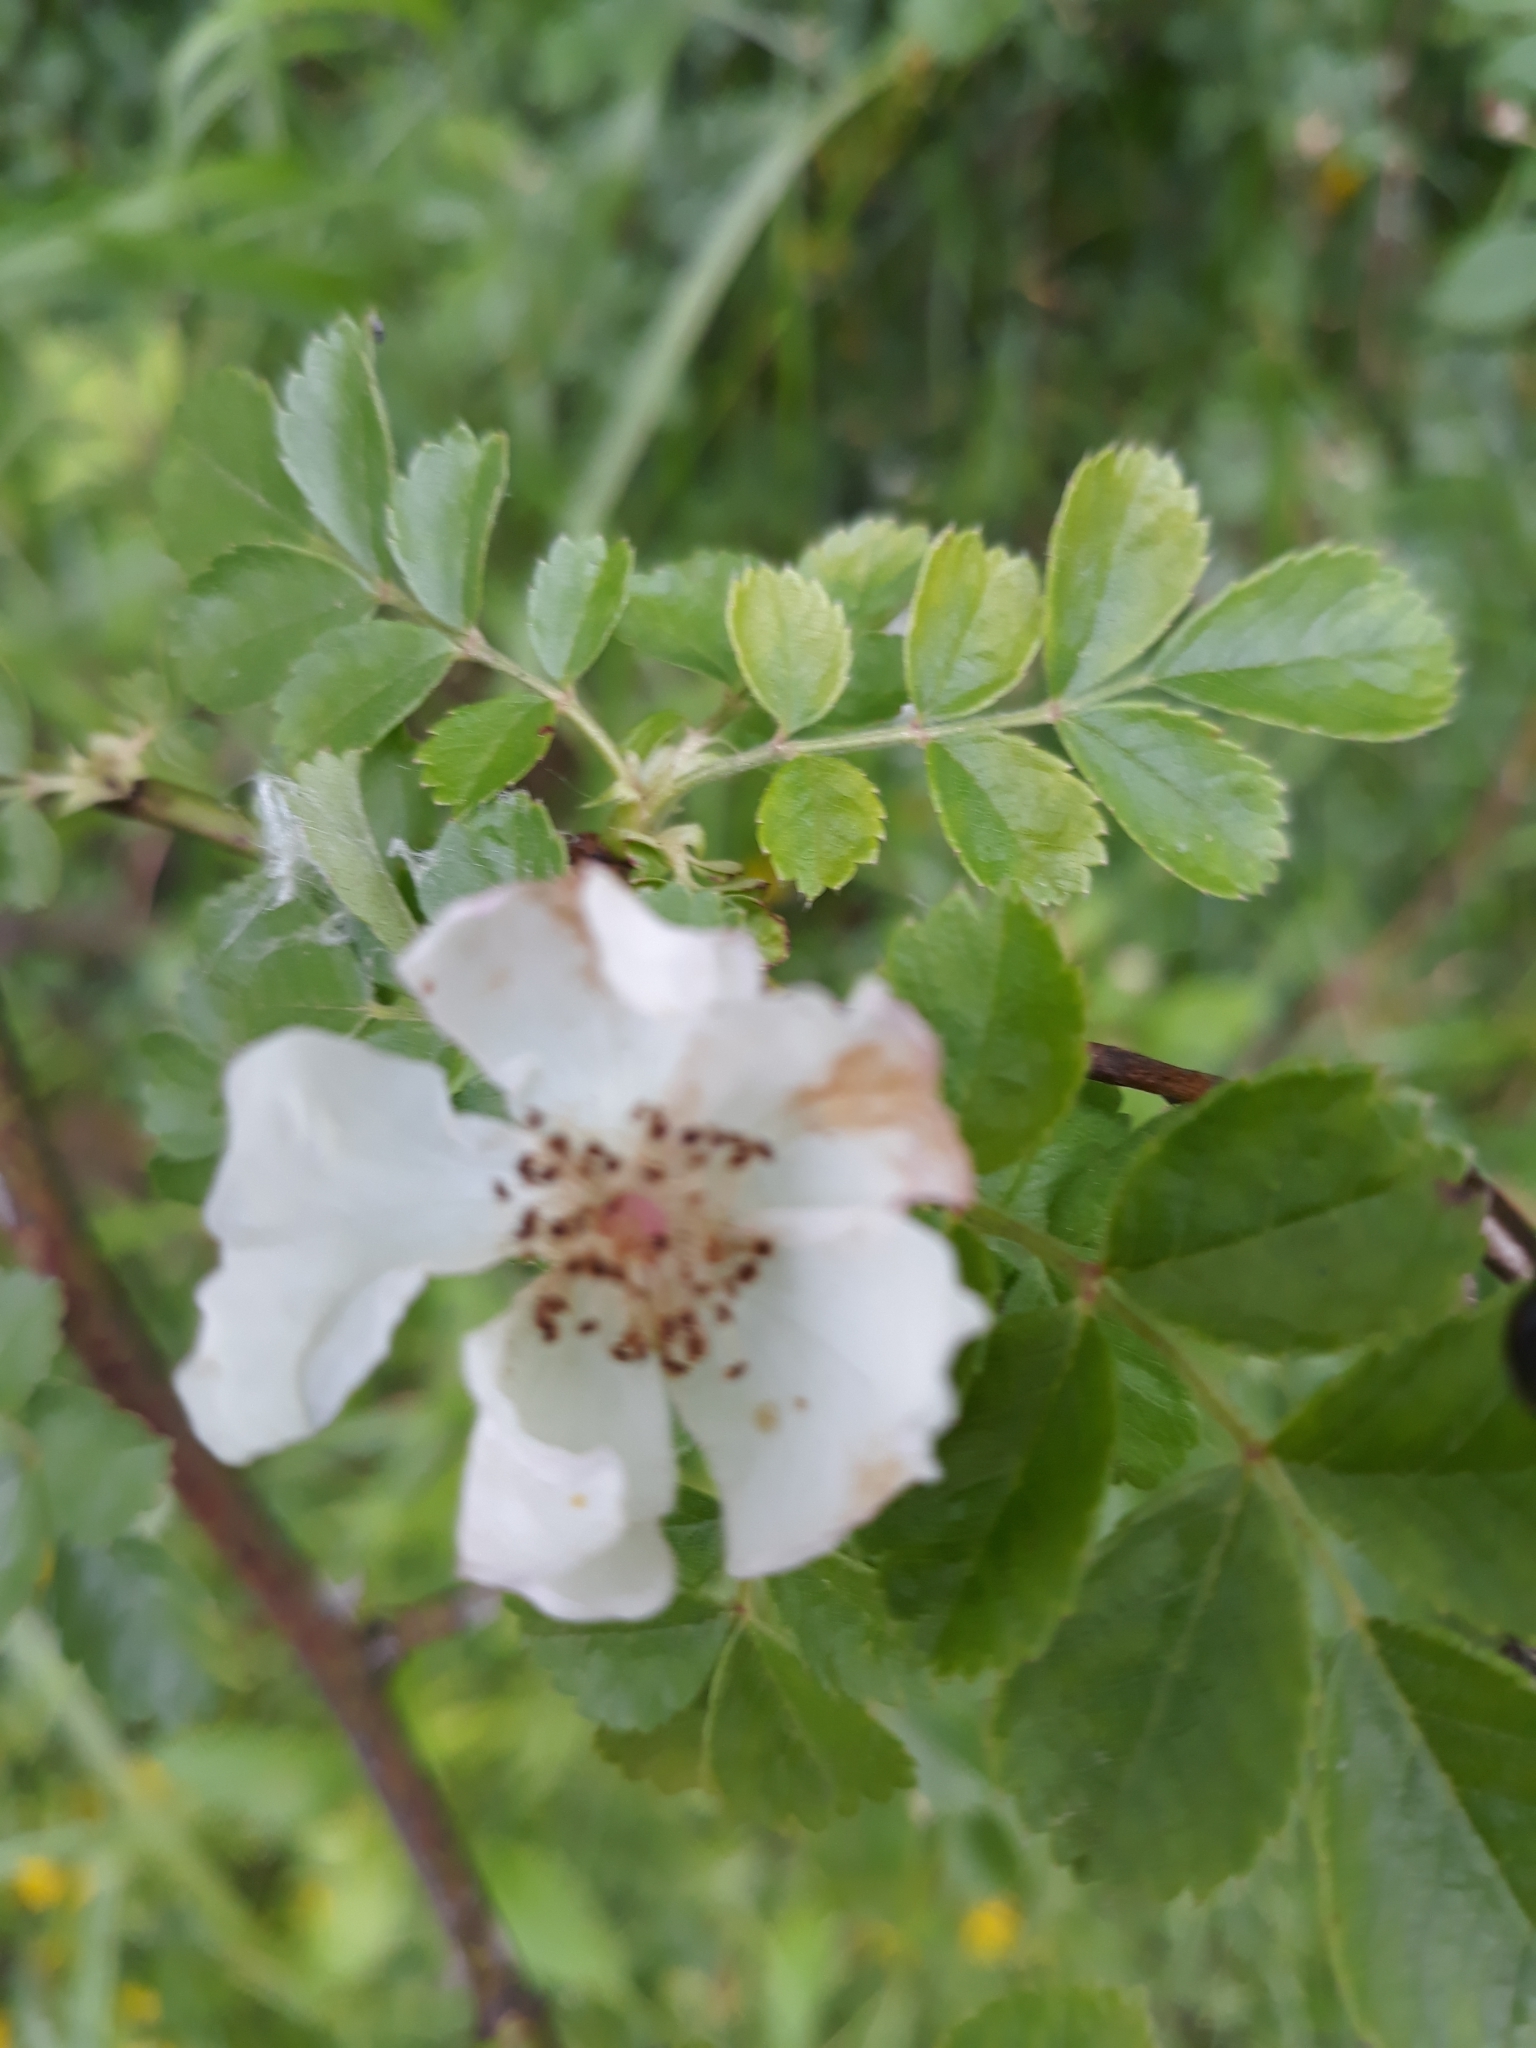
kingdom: Plantae
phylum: Tracheophyta
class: Magnoliopsida
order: Rosales
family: Rosaceae
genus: Rosa
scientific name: Rosa multiflora
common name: Multiflora rose
